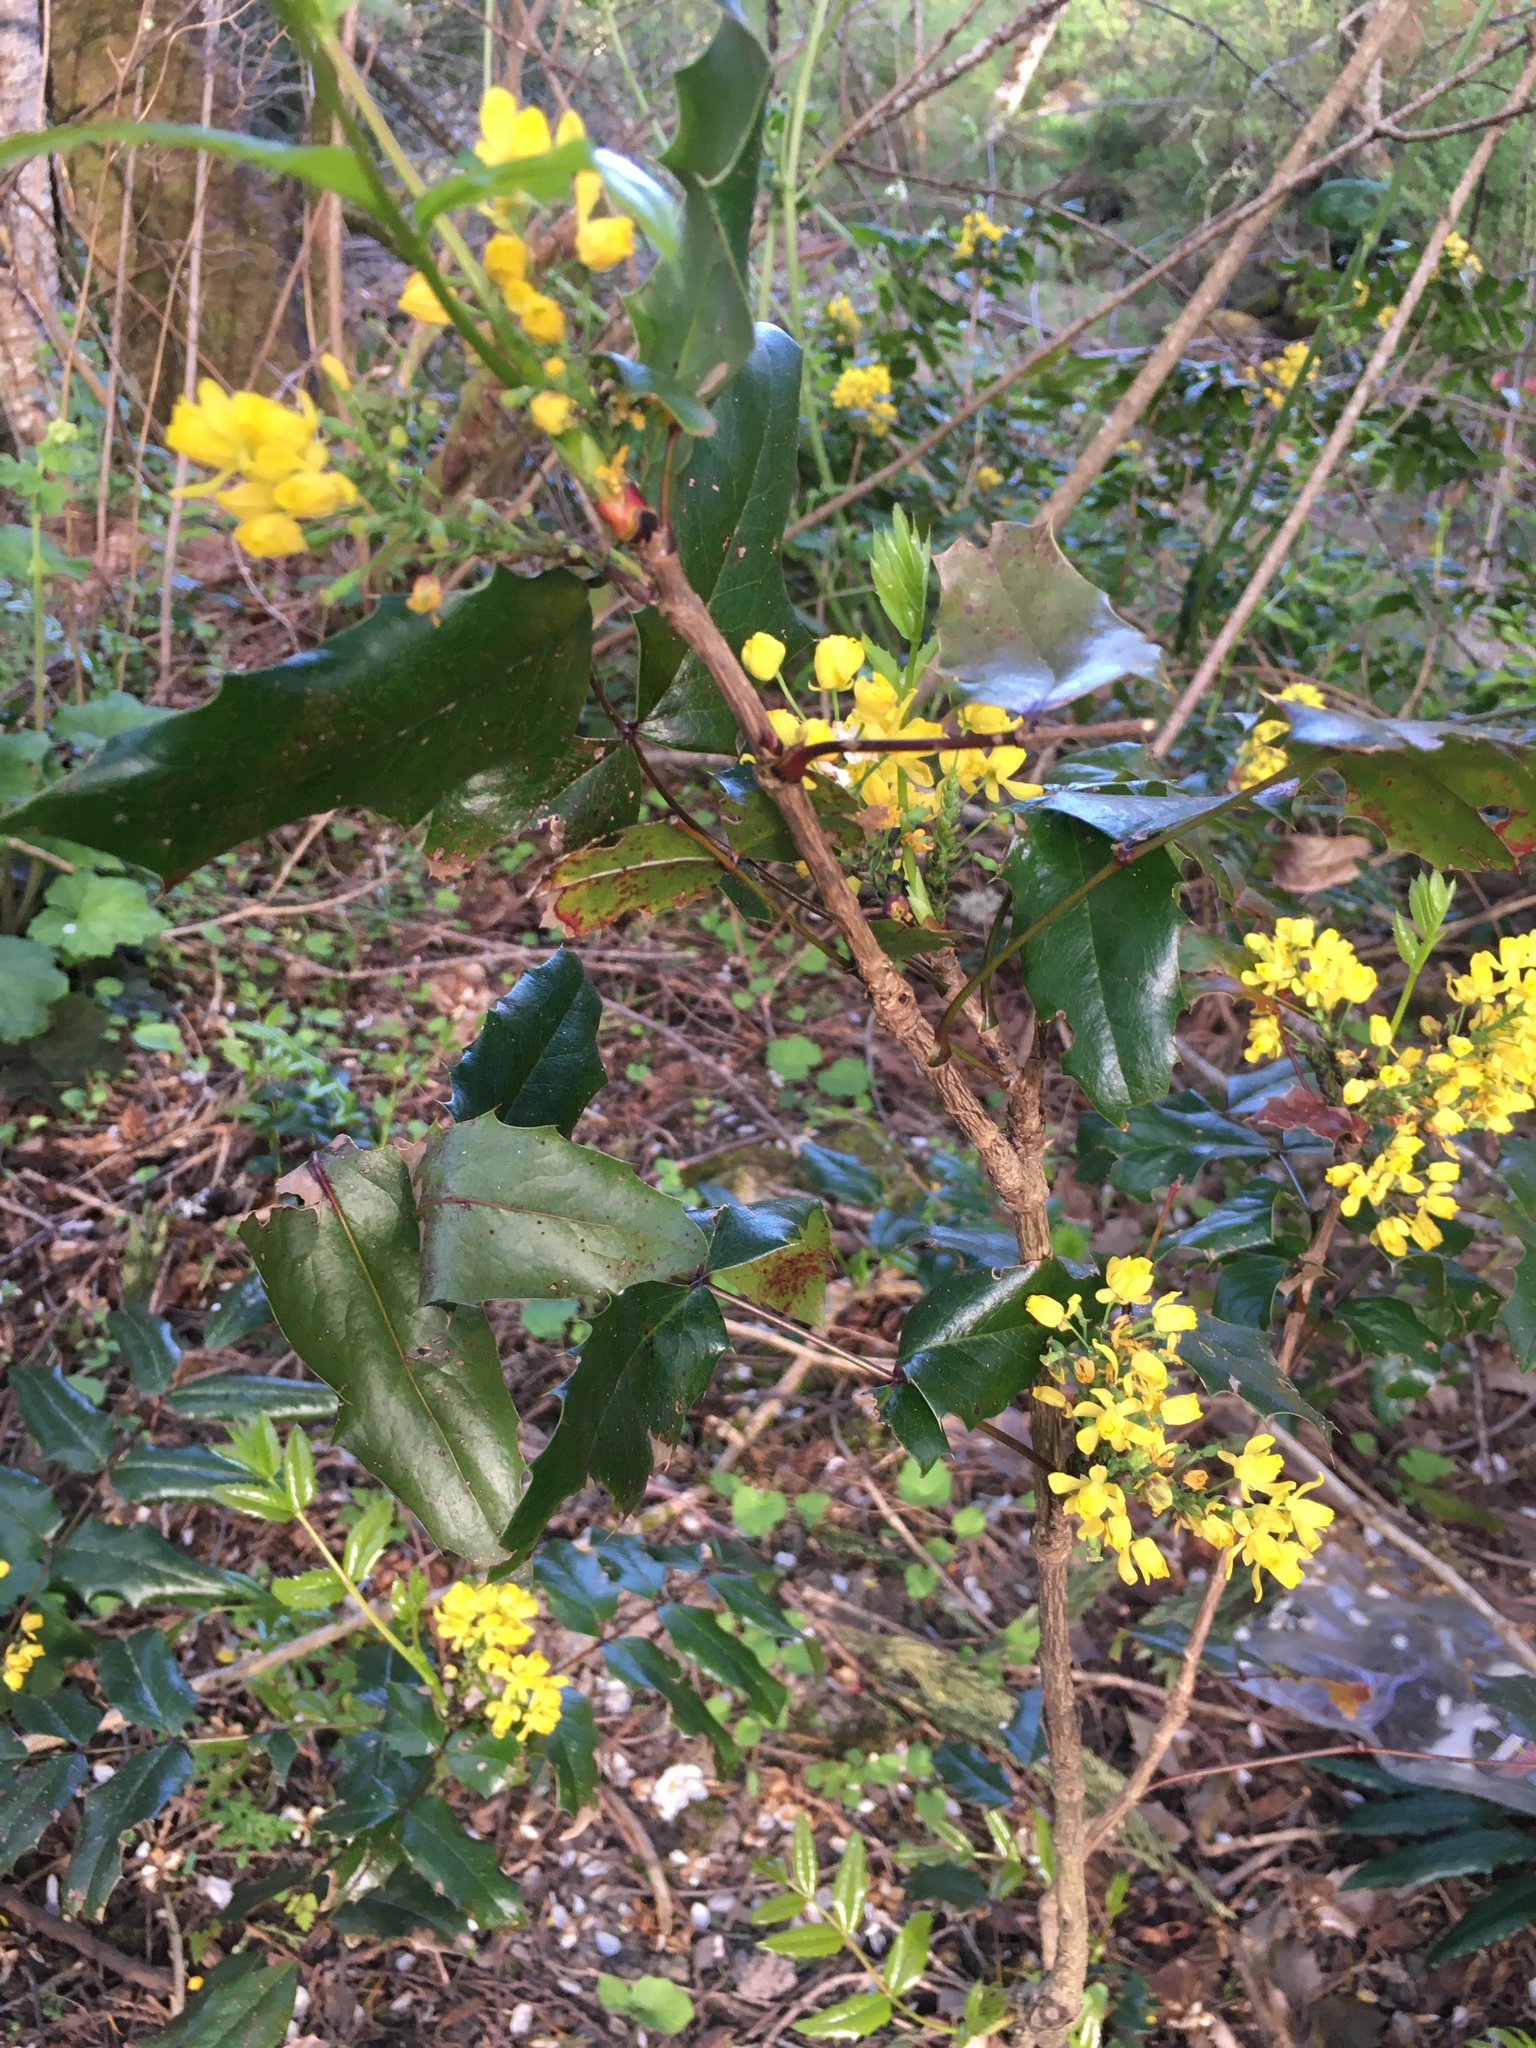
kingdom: Plantae
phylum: Tracheophyta
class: Magnoliopsida
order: Ranunculales
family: Berberidaceae
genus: Mahonia
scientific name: Mahonia aquifolium
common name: Oregon-grape
